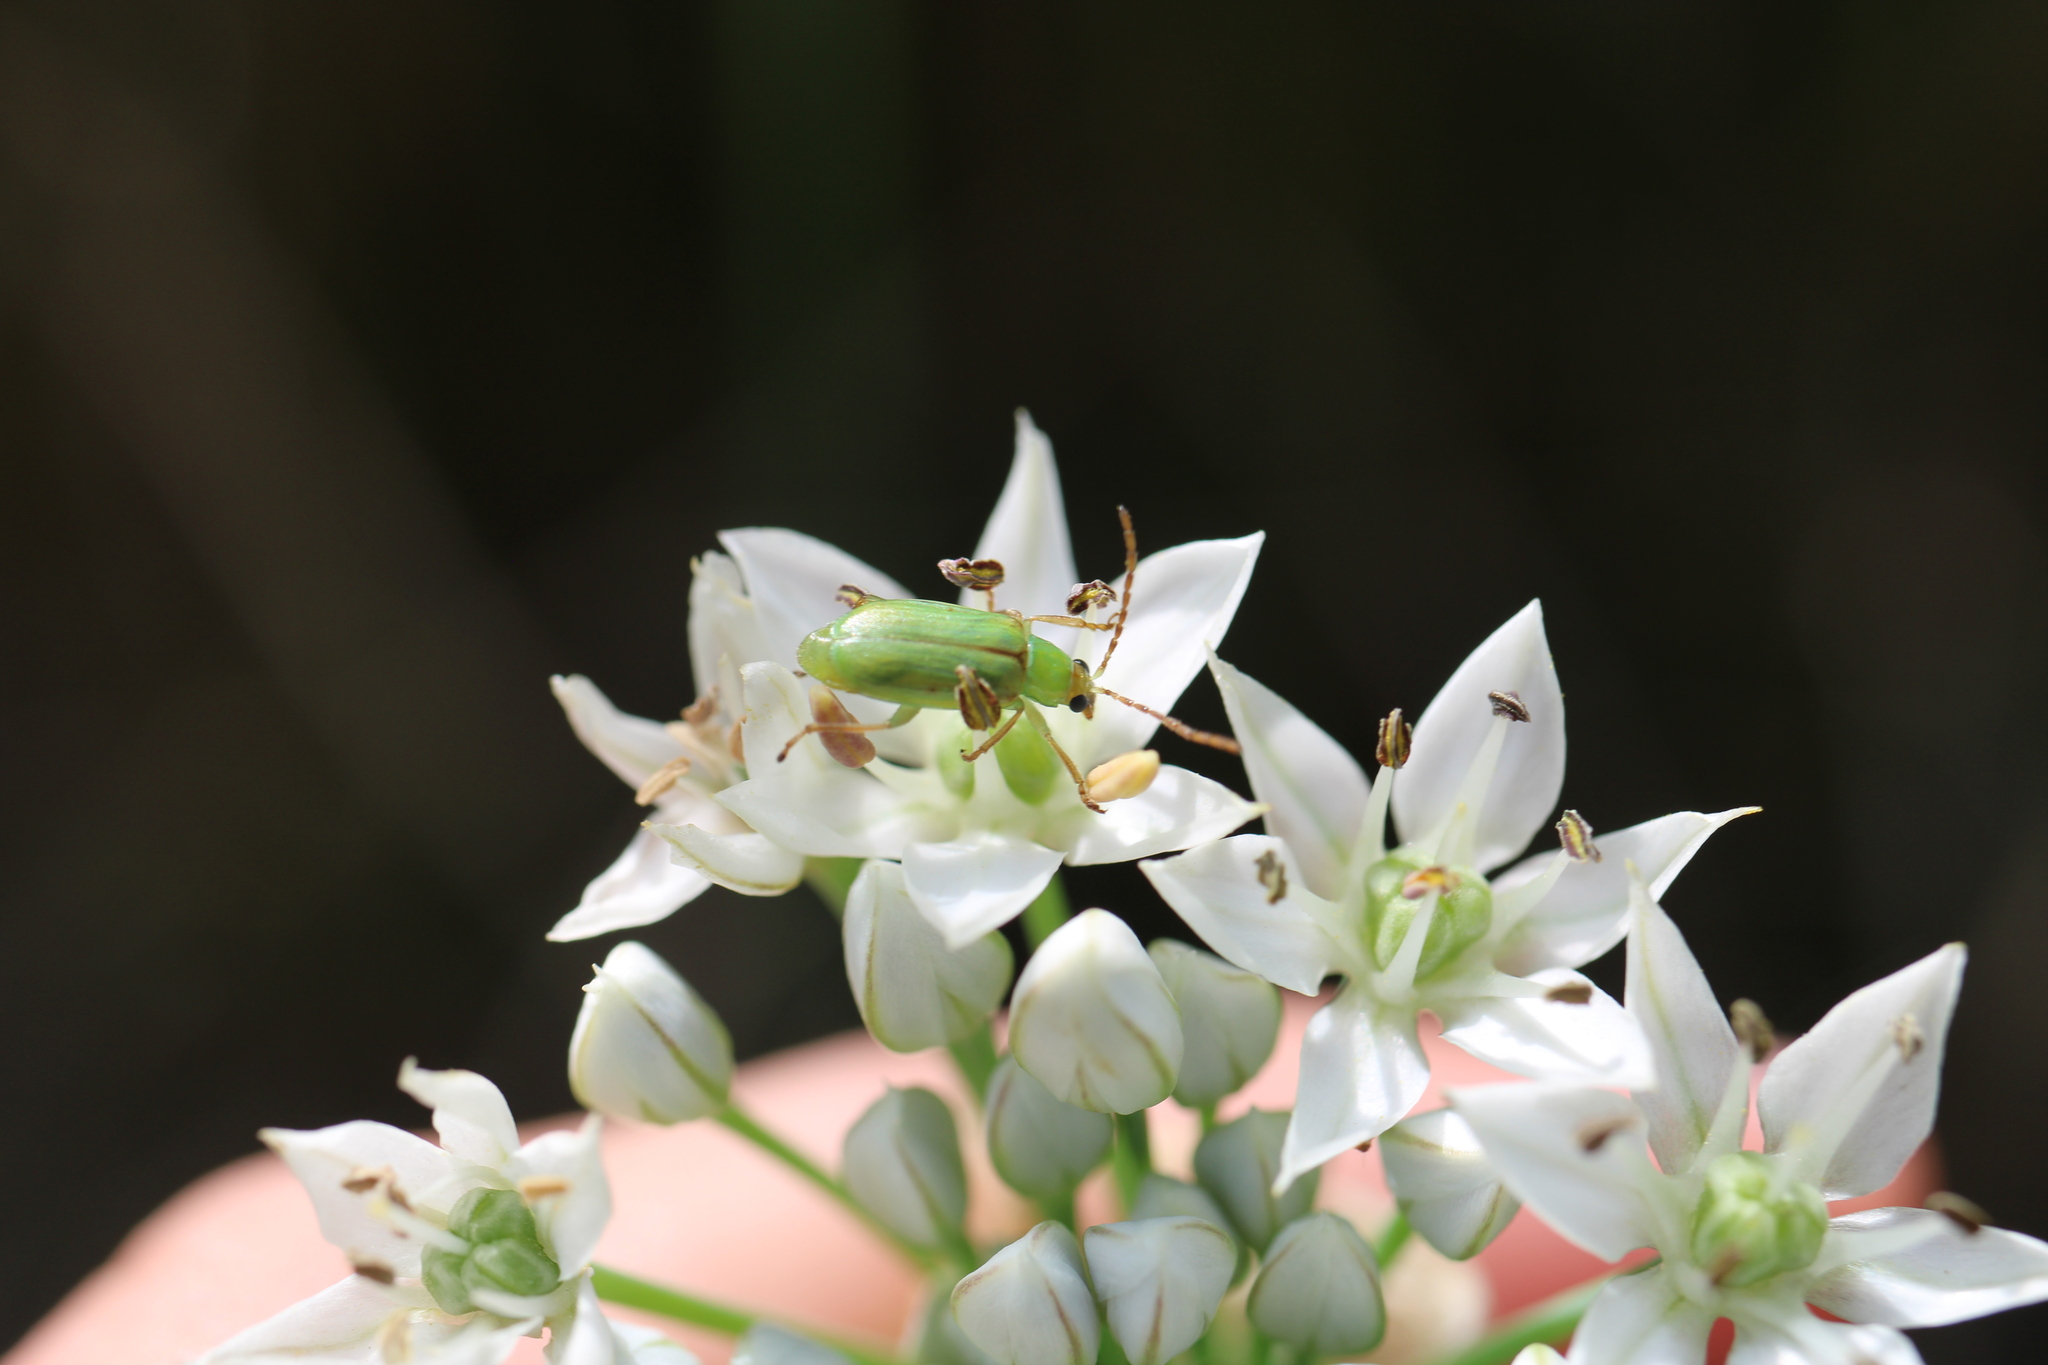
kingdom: Animalia
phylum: Arthropoda
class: Insecta
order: Coleoptera
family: Chrysomelidae
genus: Diabrotica
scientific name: Diabrotica barberi
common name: Northern corn rootworm
